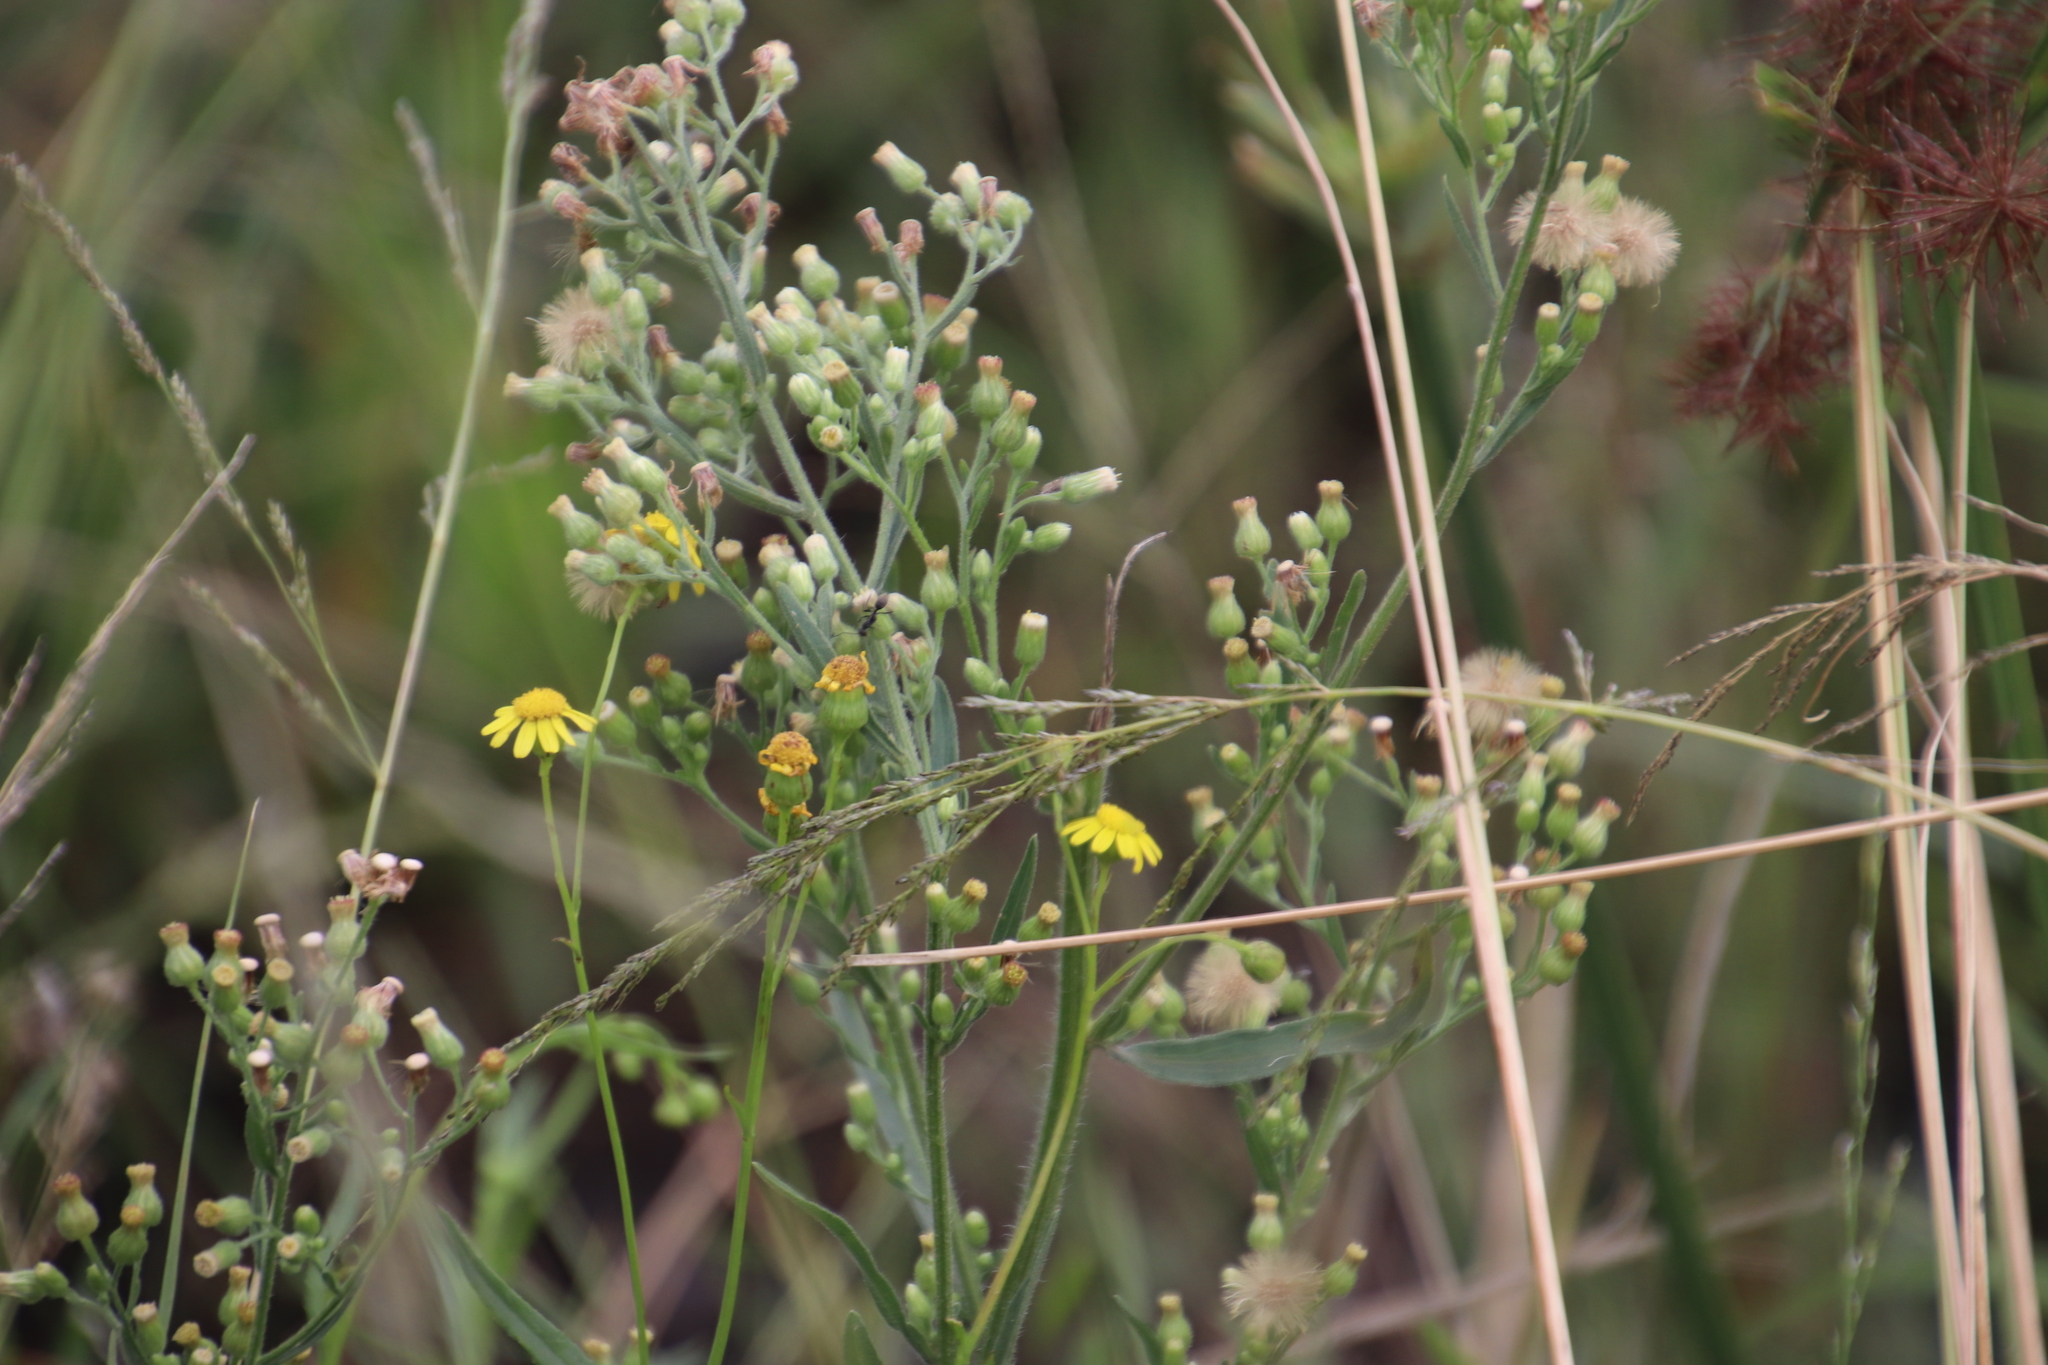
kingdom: Plantae
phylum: Tracheophyta
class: Magnoliopsida
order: Asterales
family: Asteraceae
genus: Nidorella
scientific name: Nidorella ivifolia
